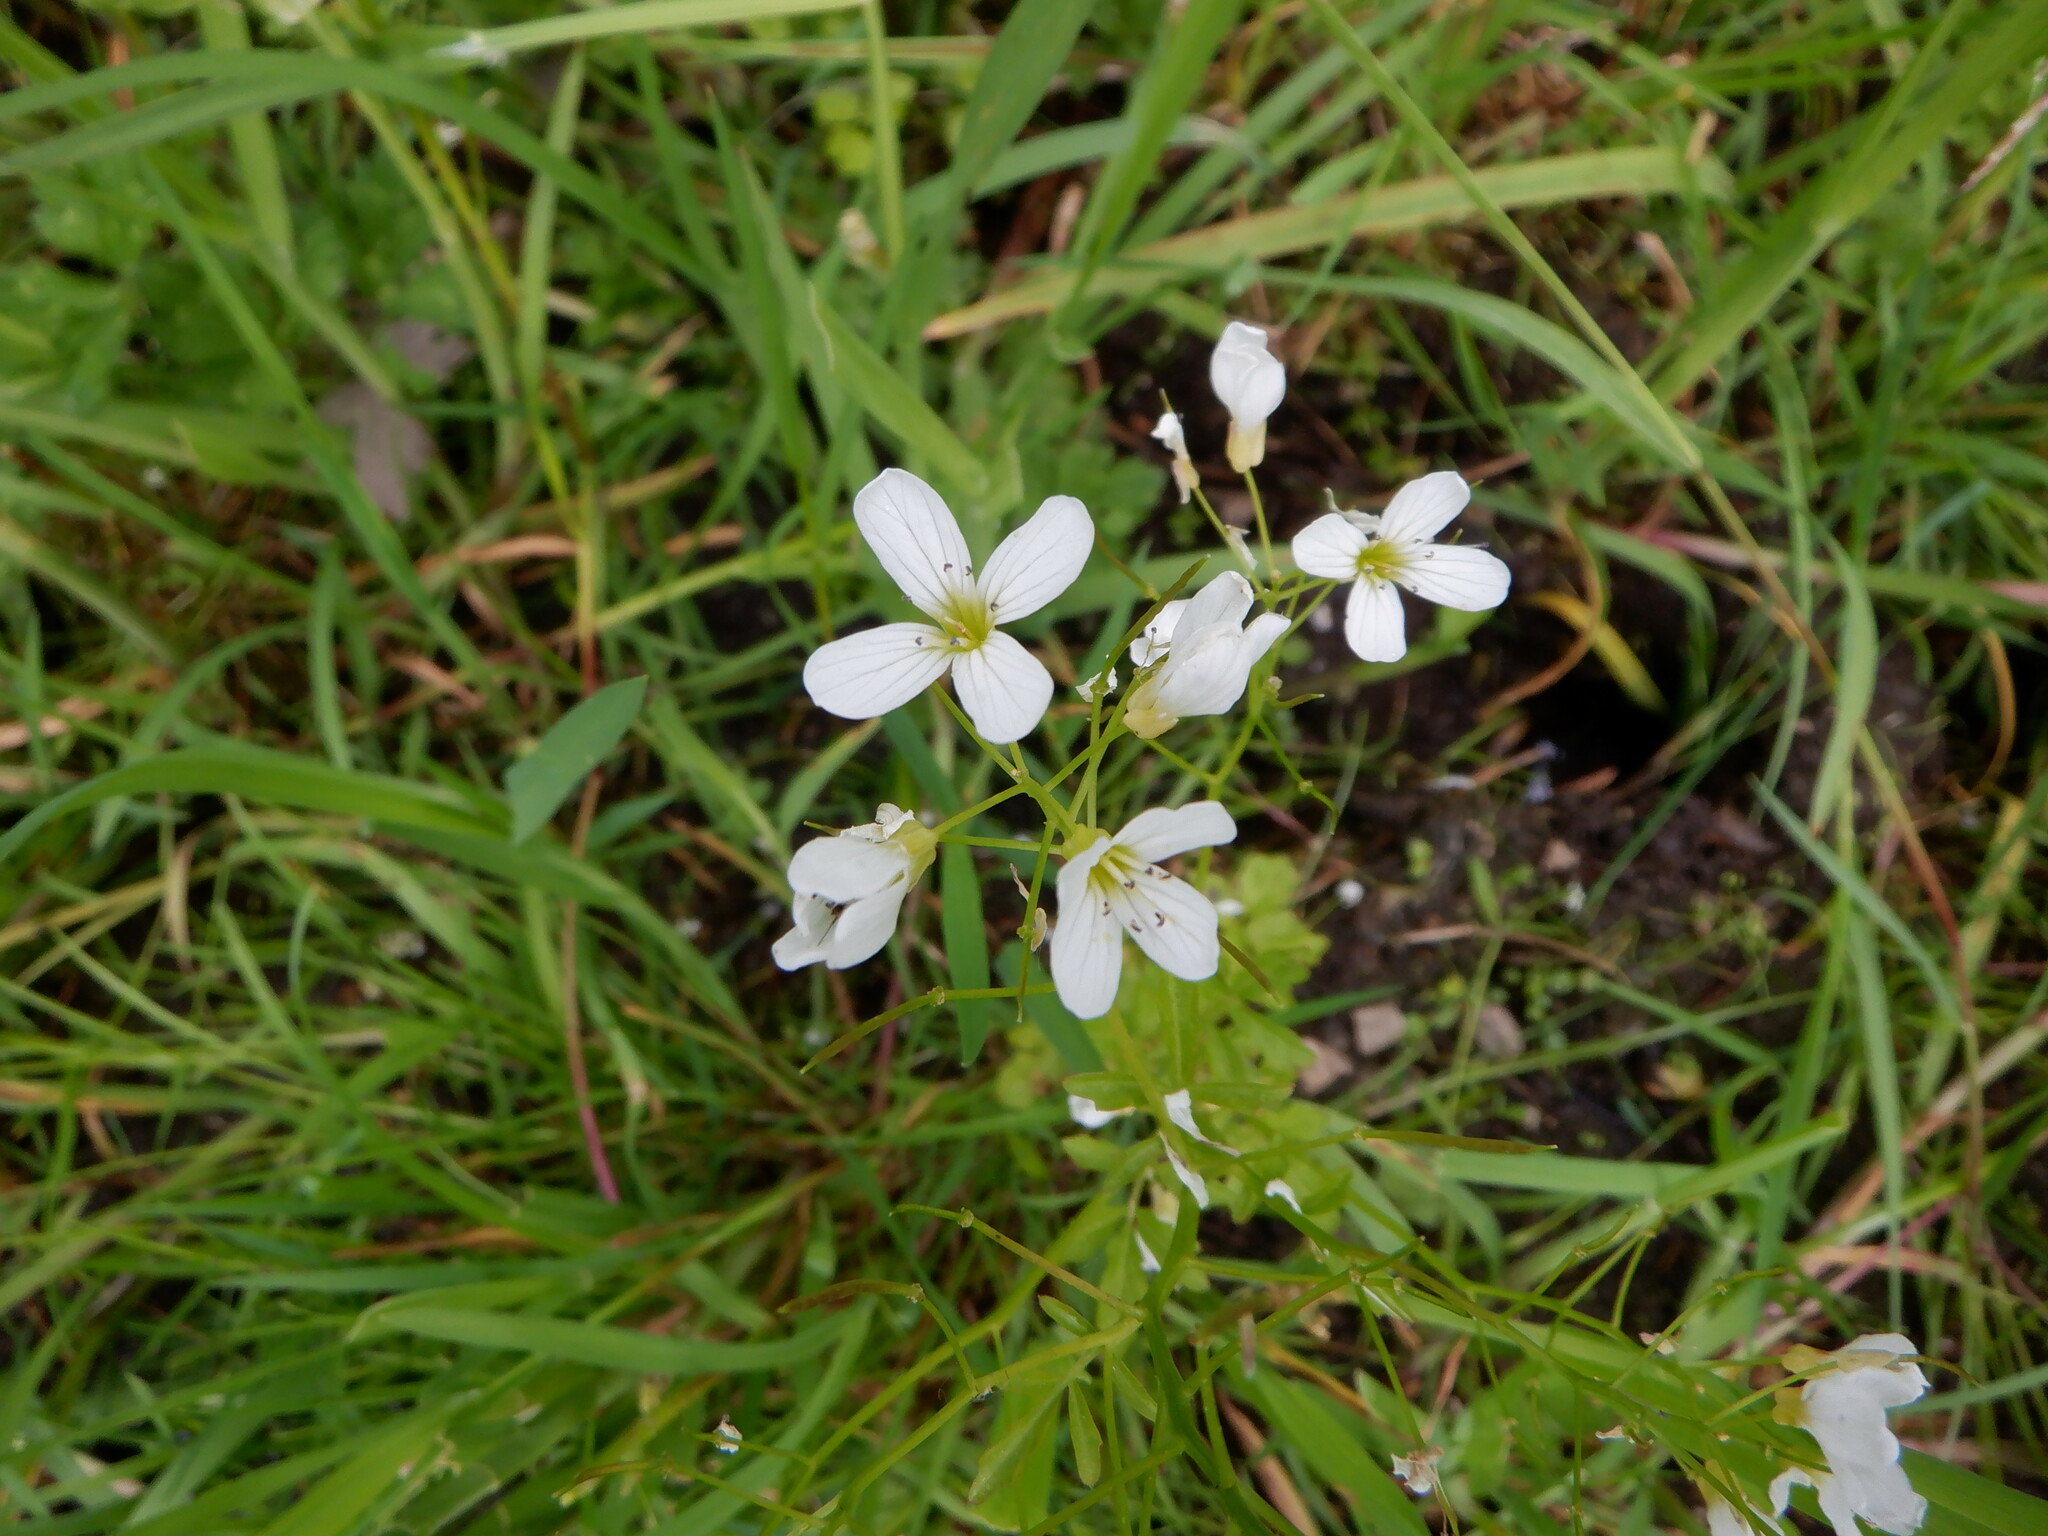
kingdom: Plantae
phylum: Tracheophyta
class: Magnoliopsida
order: Brassicales
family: Brassicaceae
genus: Cardamine
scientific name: Cardamine amara
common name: Large bitter-cress
